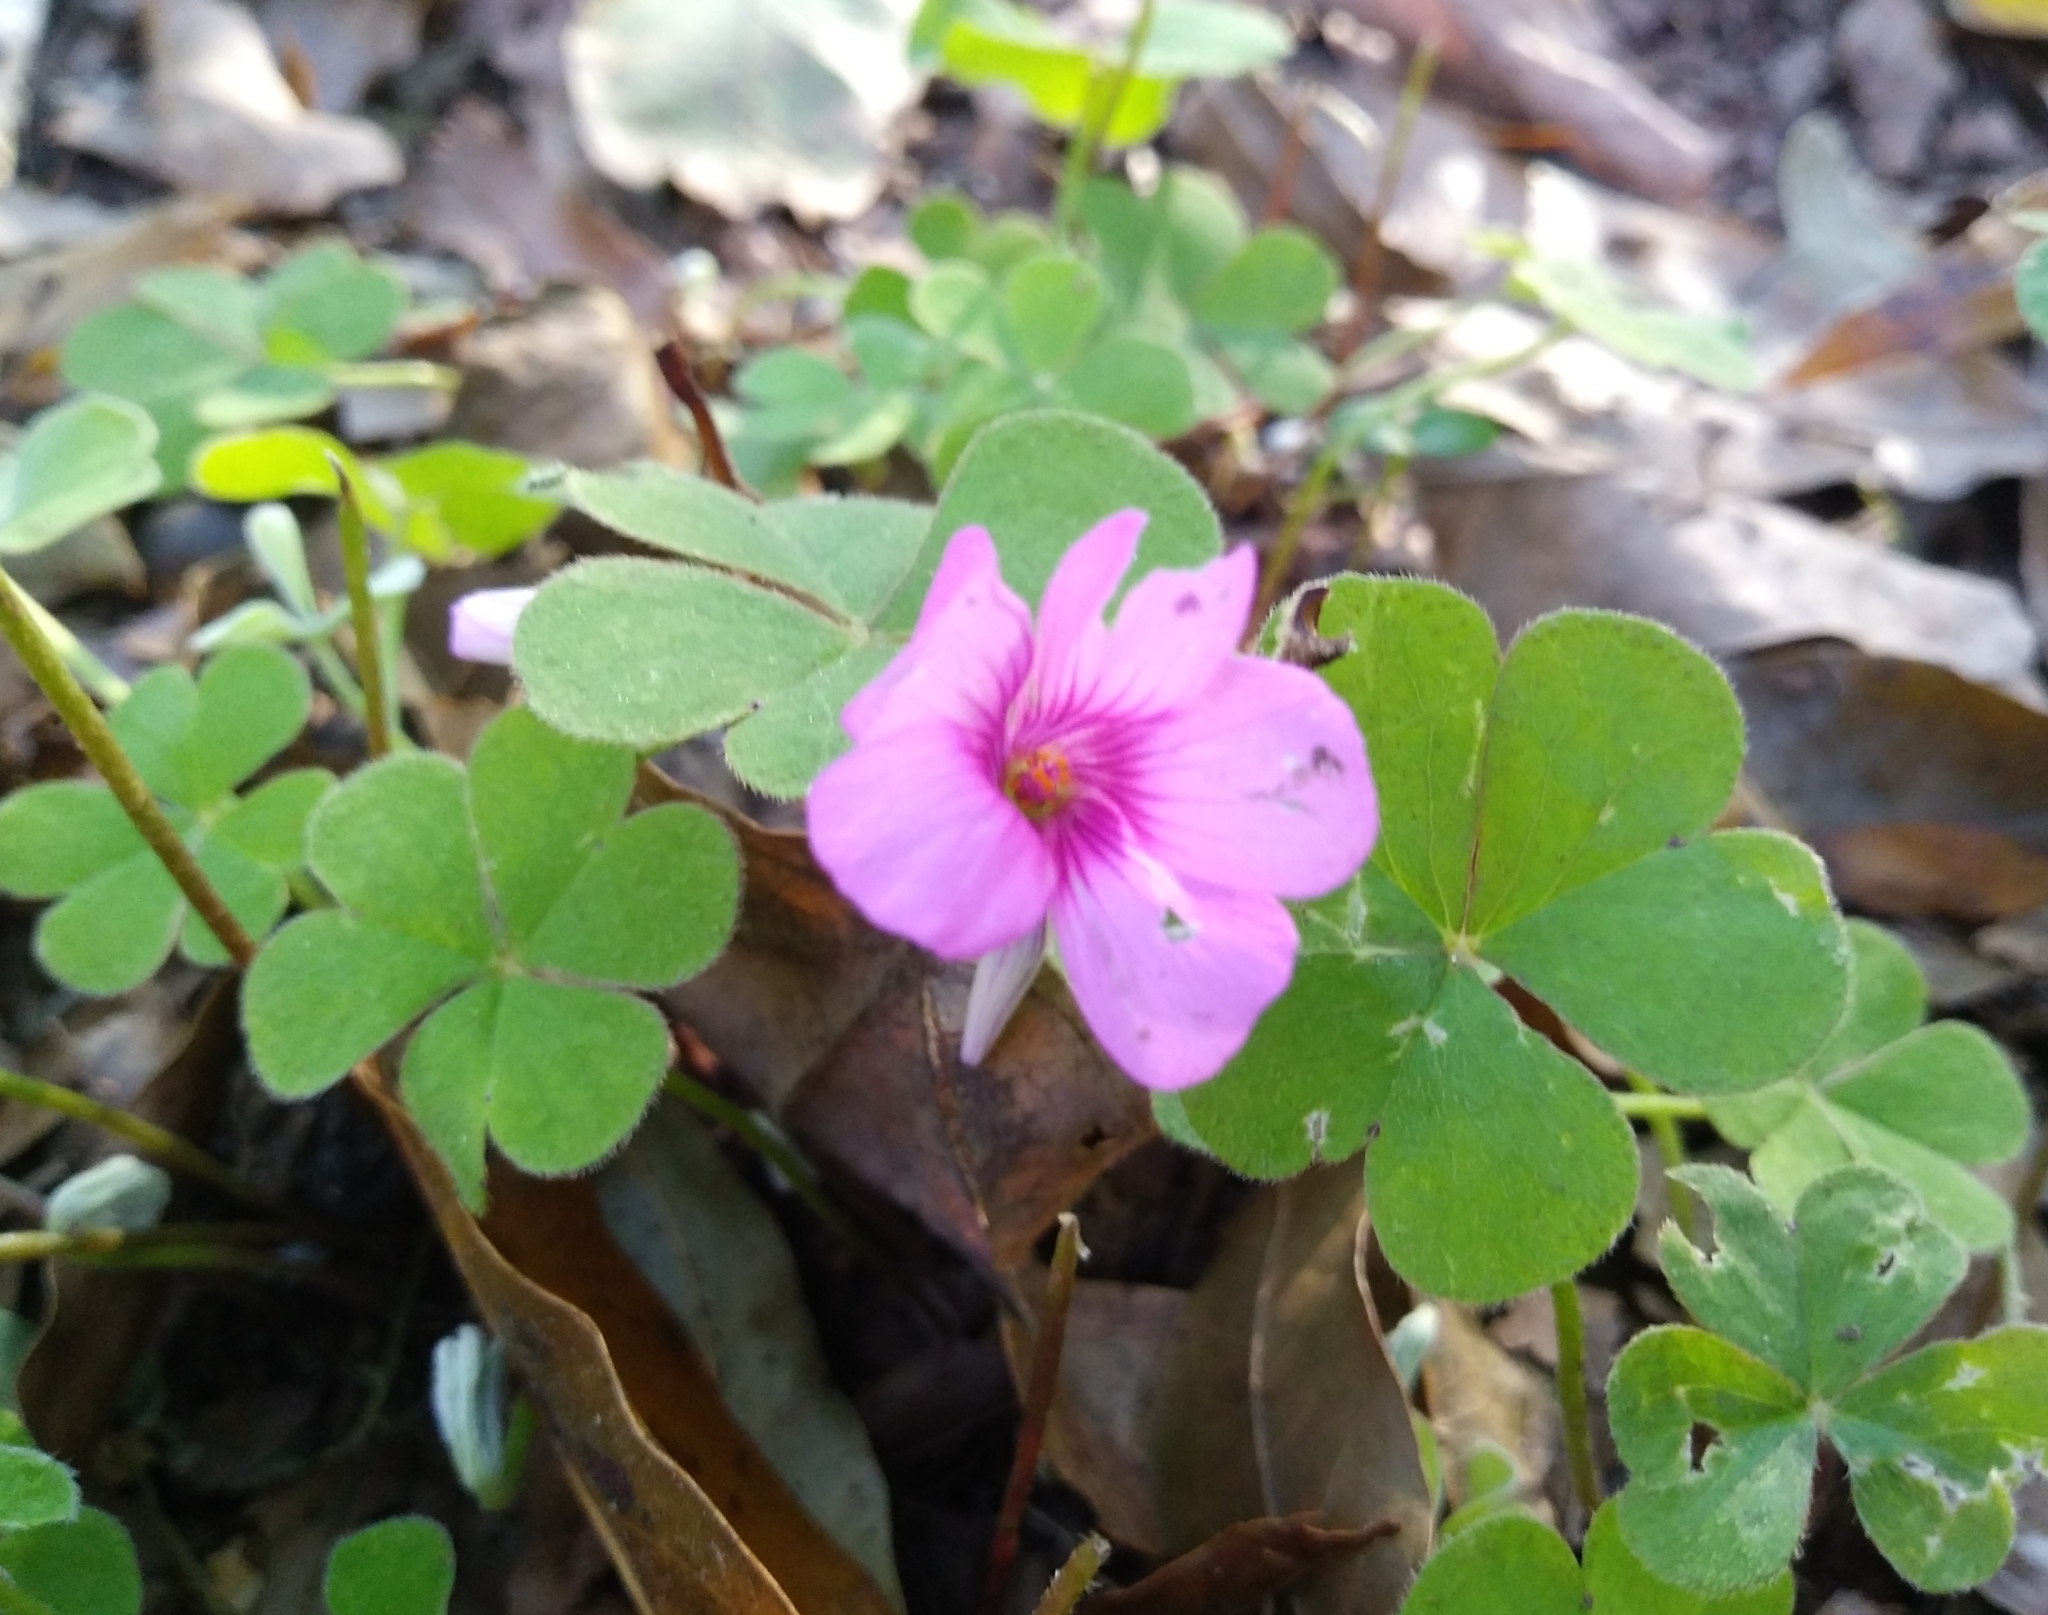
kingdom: Plantae
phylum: Tracheophyta
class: Magnoliopsida
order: Oxalidales
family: Oxalidaceae
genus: Oxalis
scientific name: Oxalis articulata
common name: Pink-sorrel
